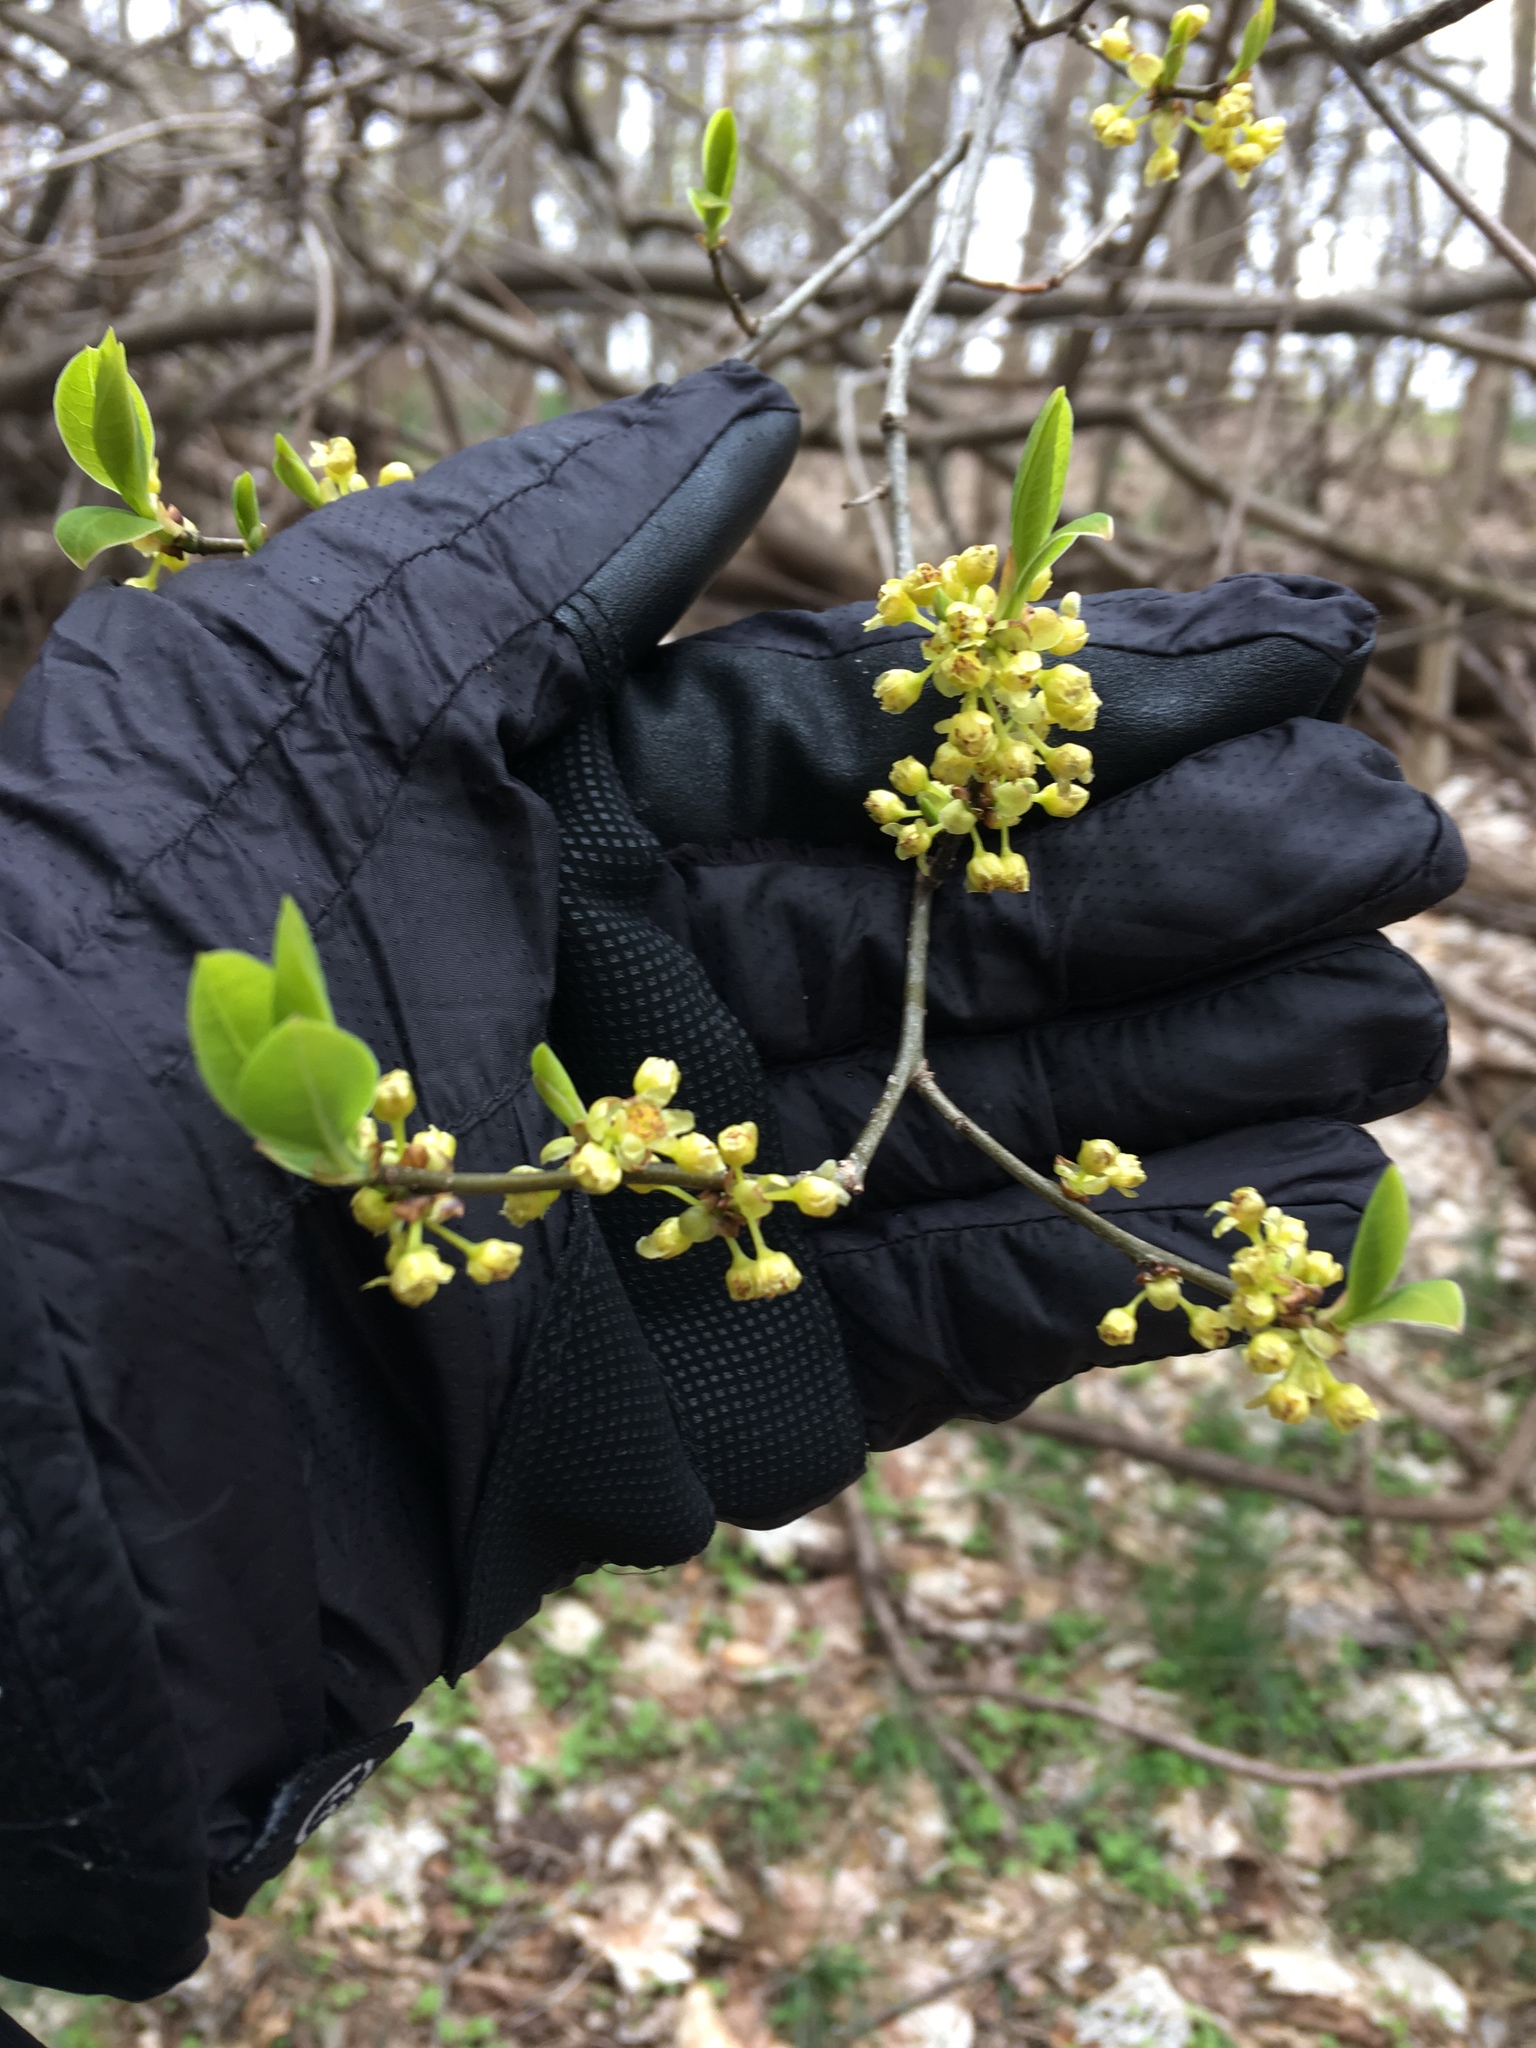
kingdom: Plantae
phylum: Tracheophyta
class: Magnoliopsida
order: Laurales
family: Lauraceae
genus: Lindera
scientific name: Lindera benzoin
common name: Spicebush
